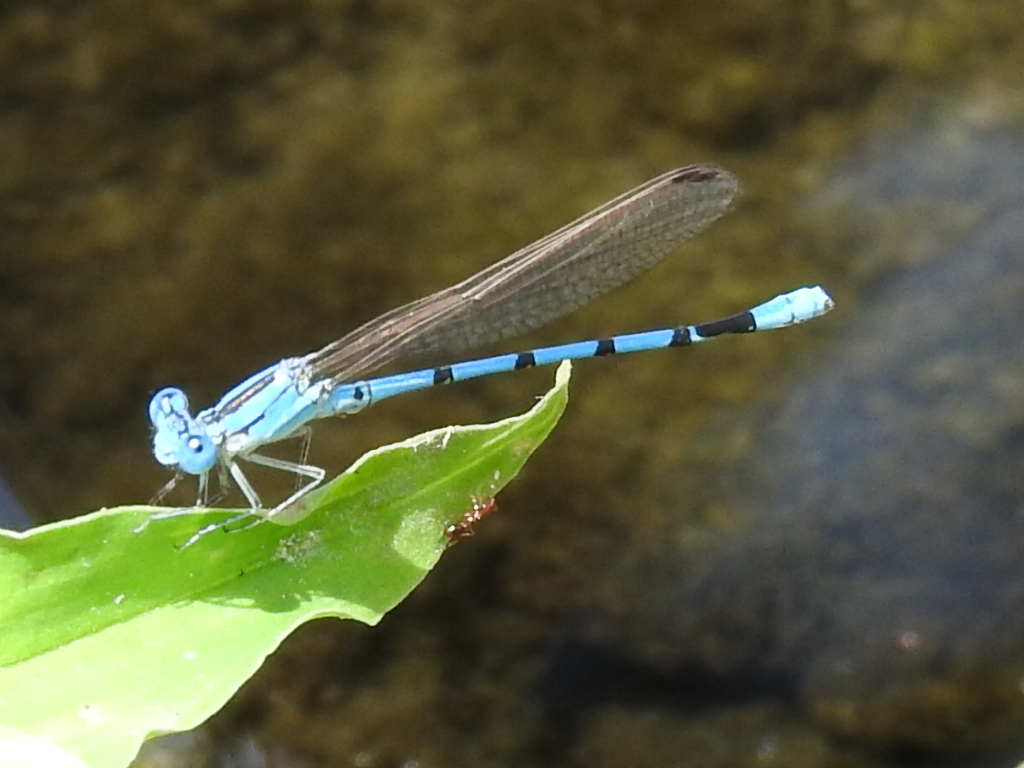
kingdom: Animalia
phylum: Arthropoda
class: Insecta
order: Odonata
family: Coenagrionidae
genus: Argia
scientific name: Argia nahuana
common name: Aztec dancer
